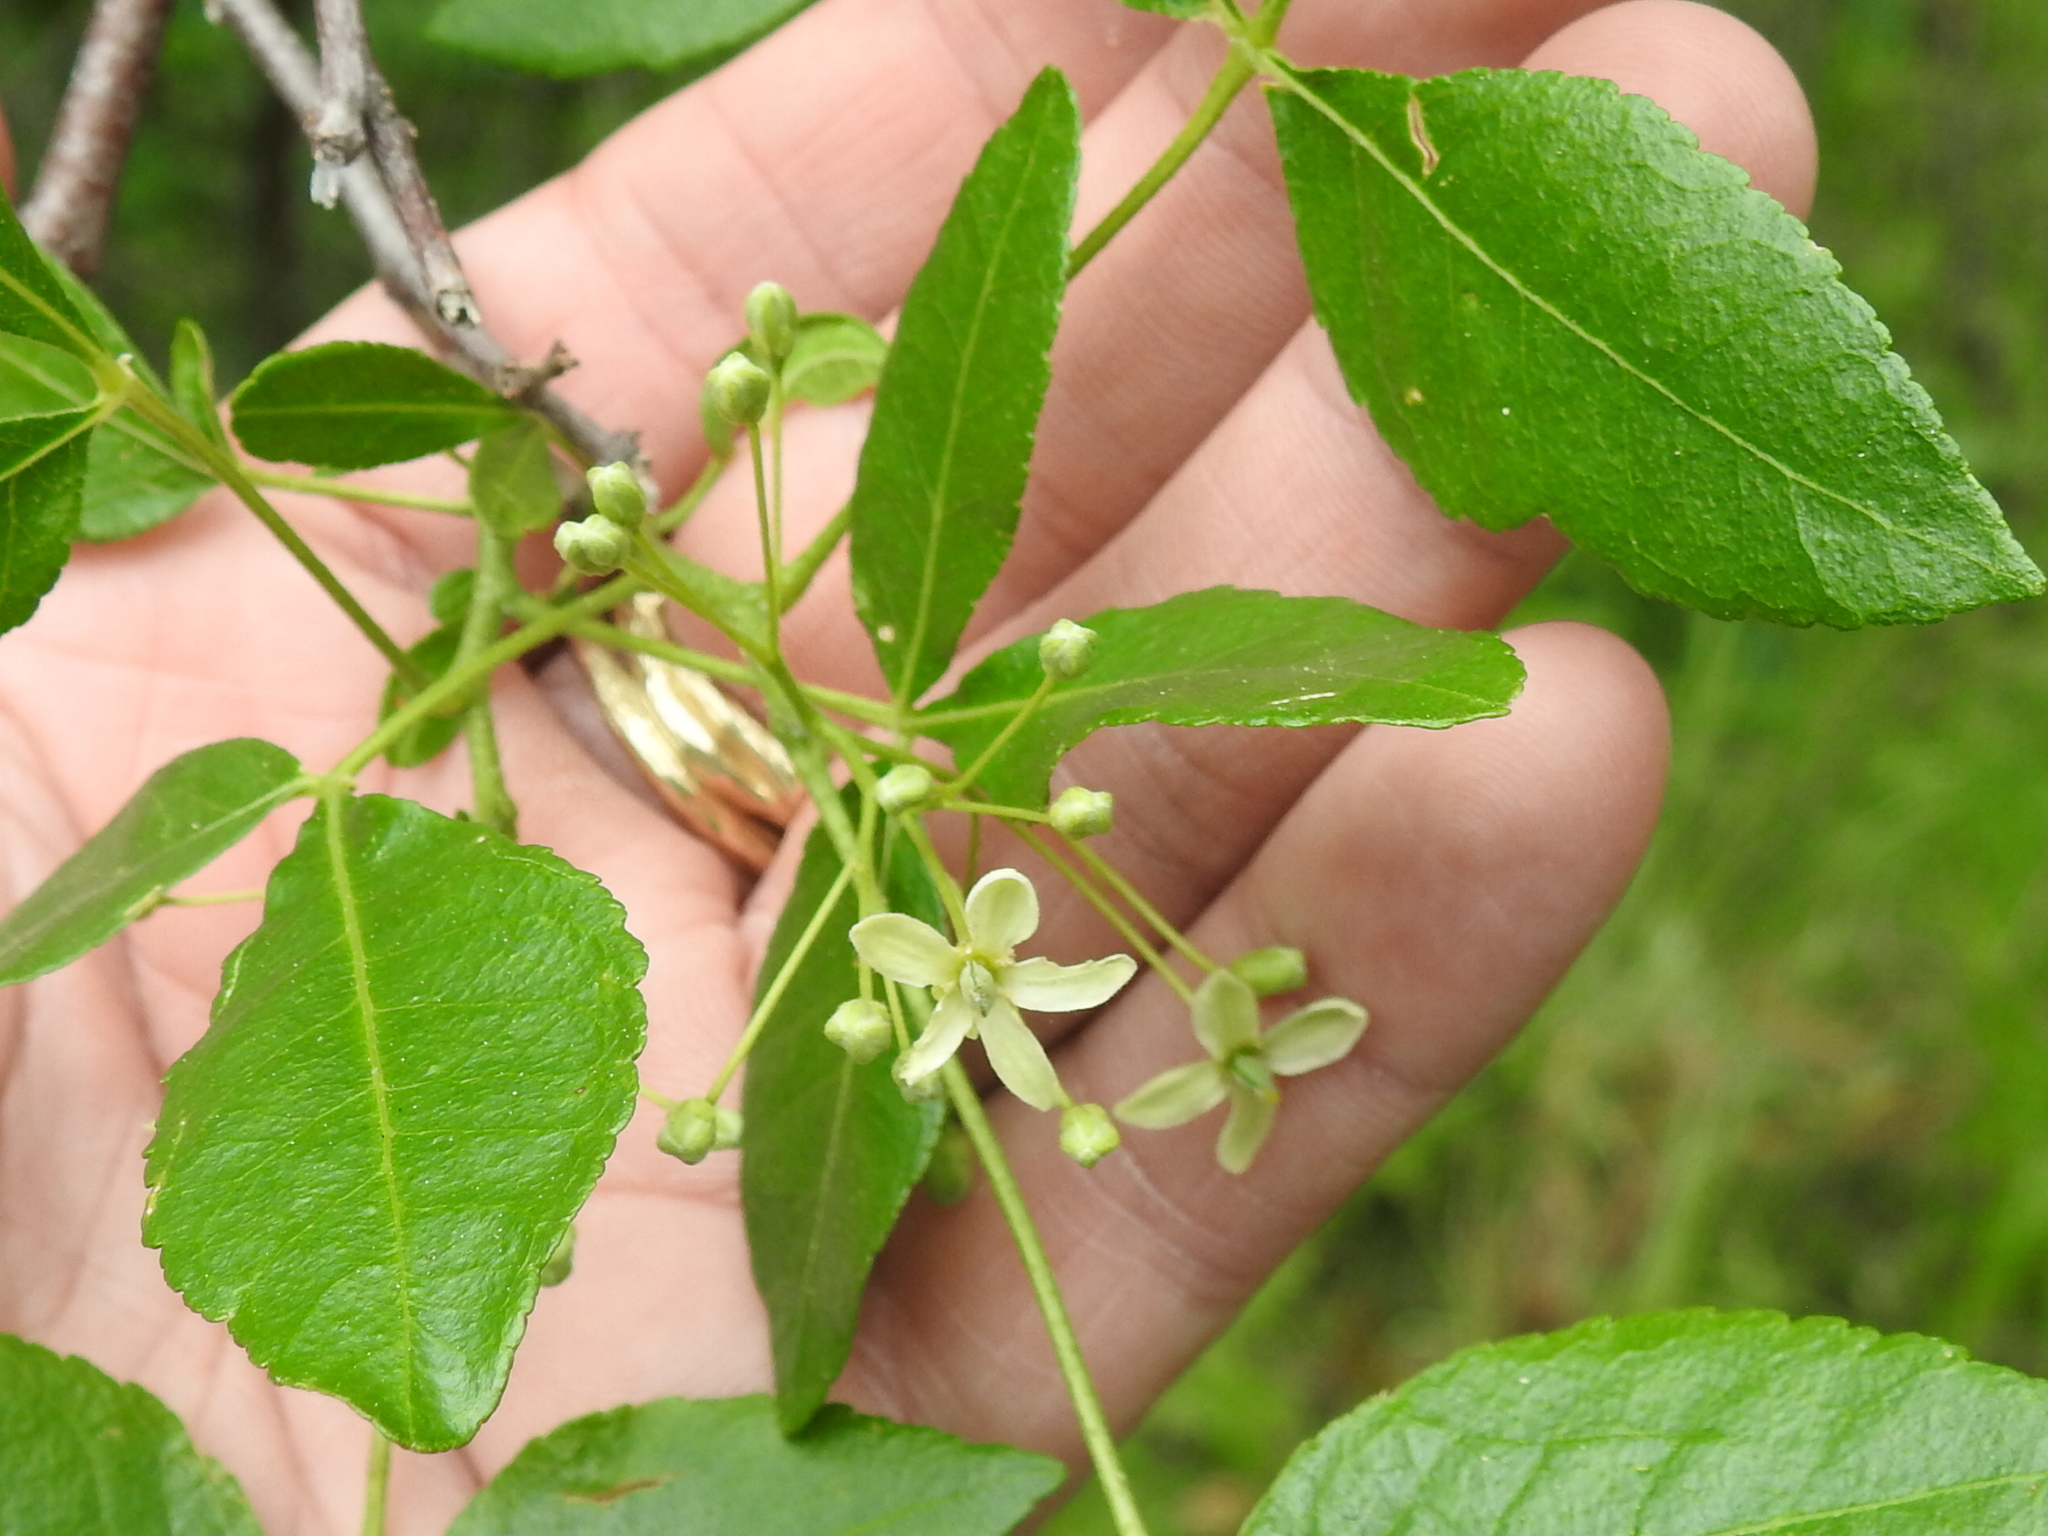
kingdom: Plantae
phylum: Tracheophyta
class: Magnoliopsida
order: Sapindales
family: Rutaceae
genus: Ptelea
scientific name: Ptelea crenulata
